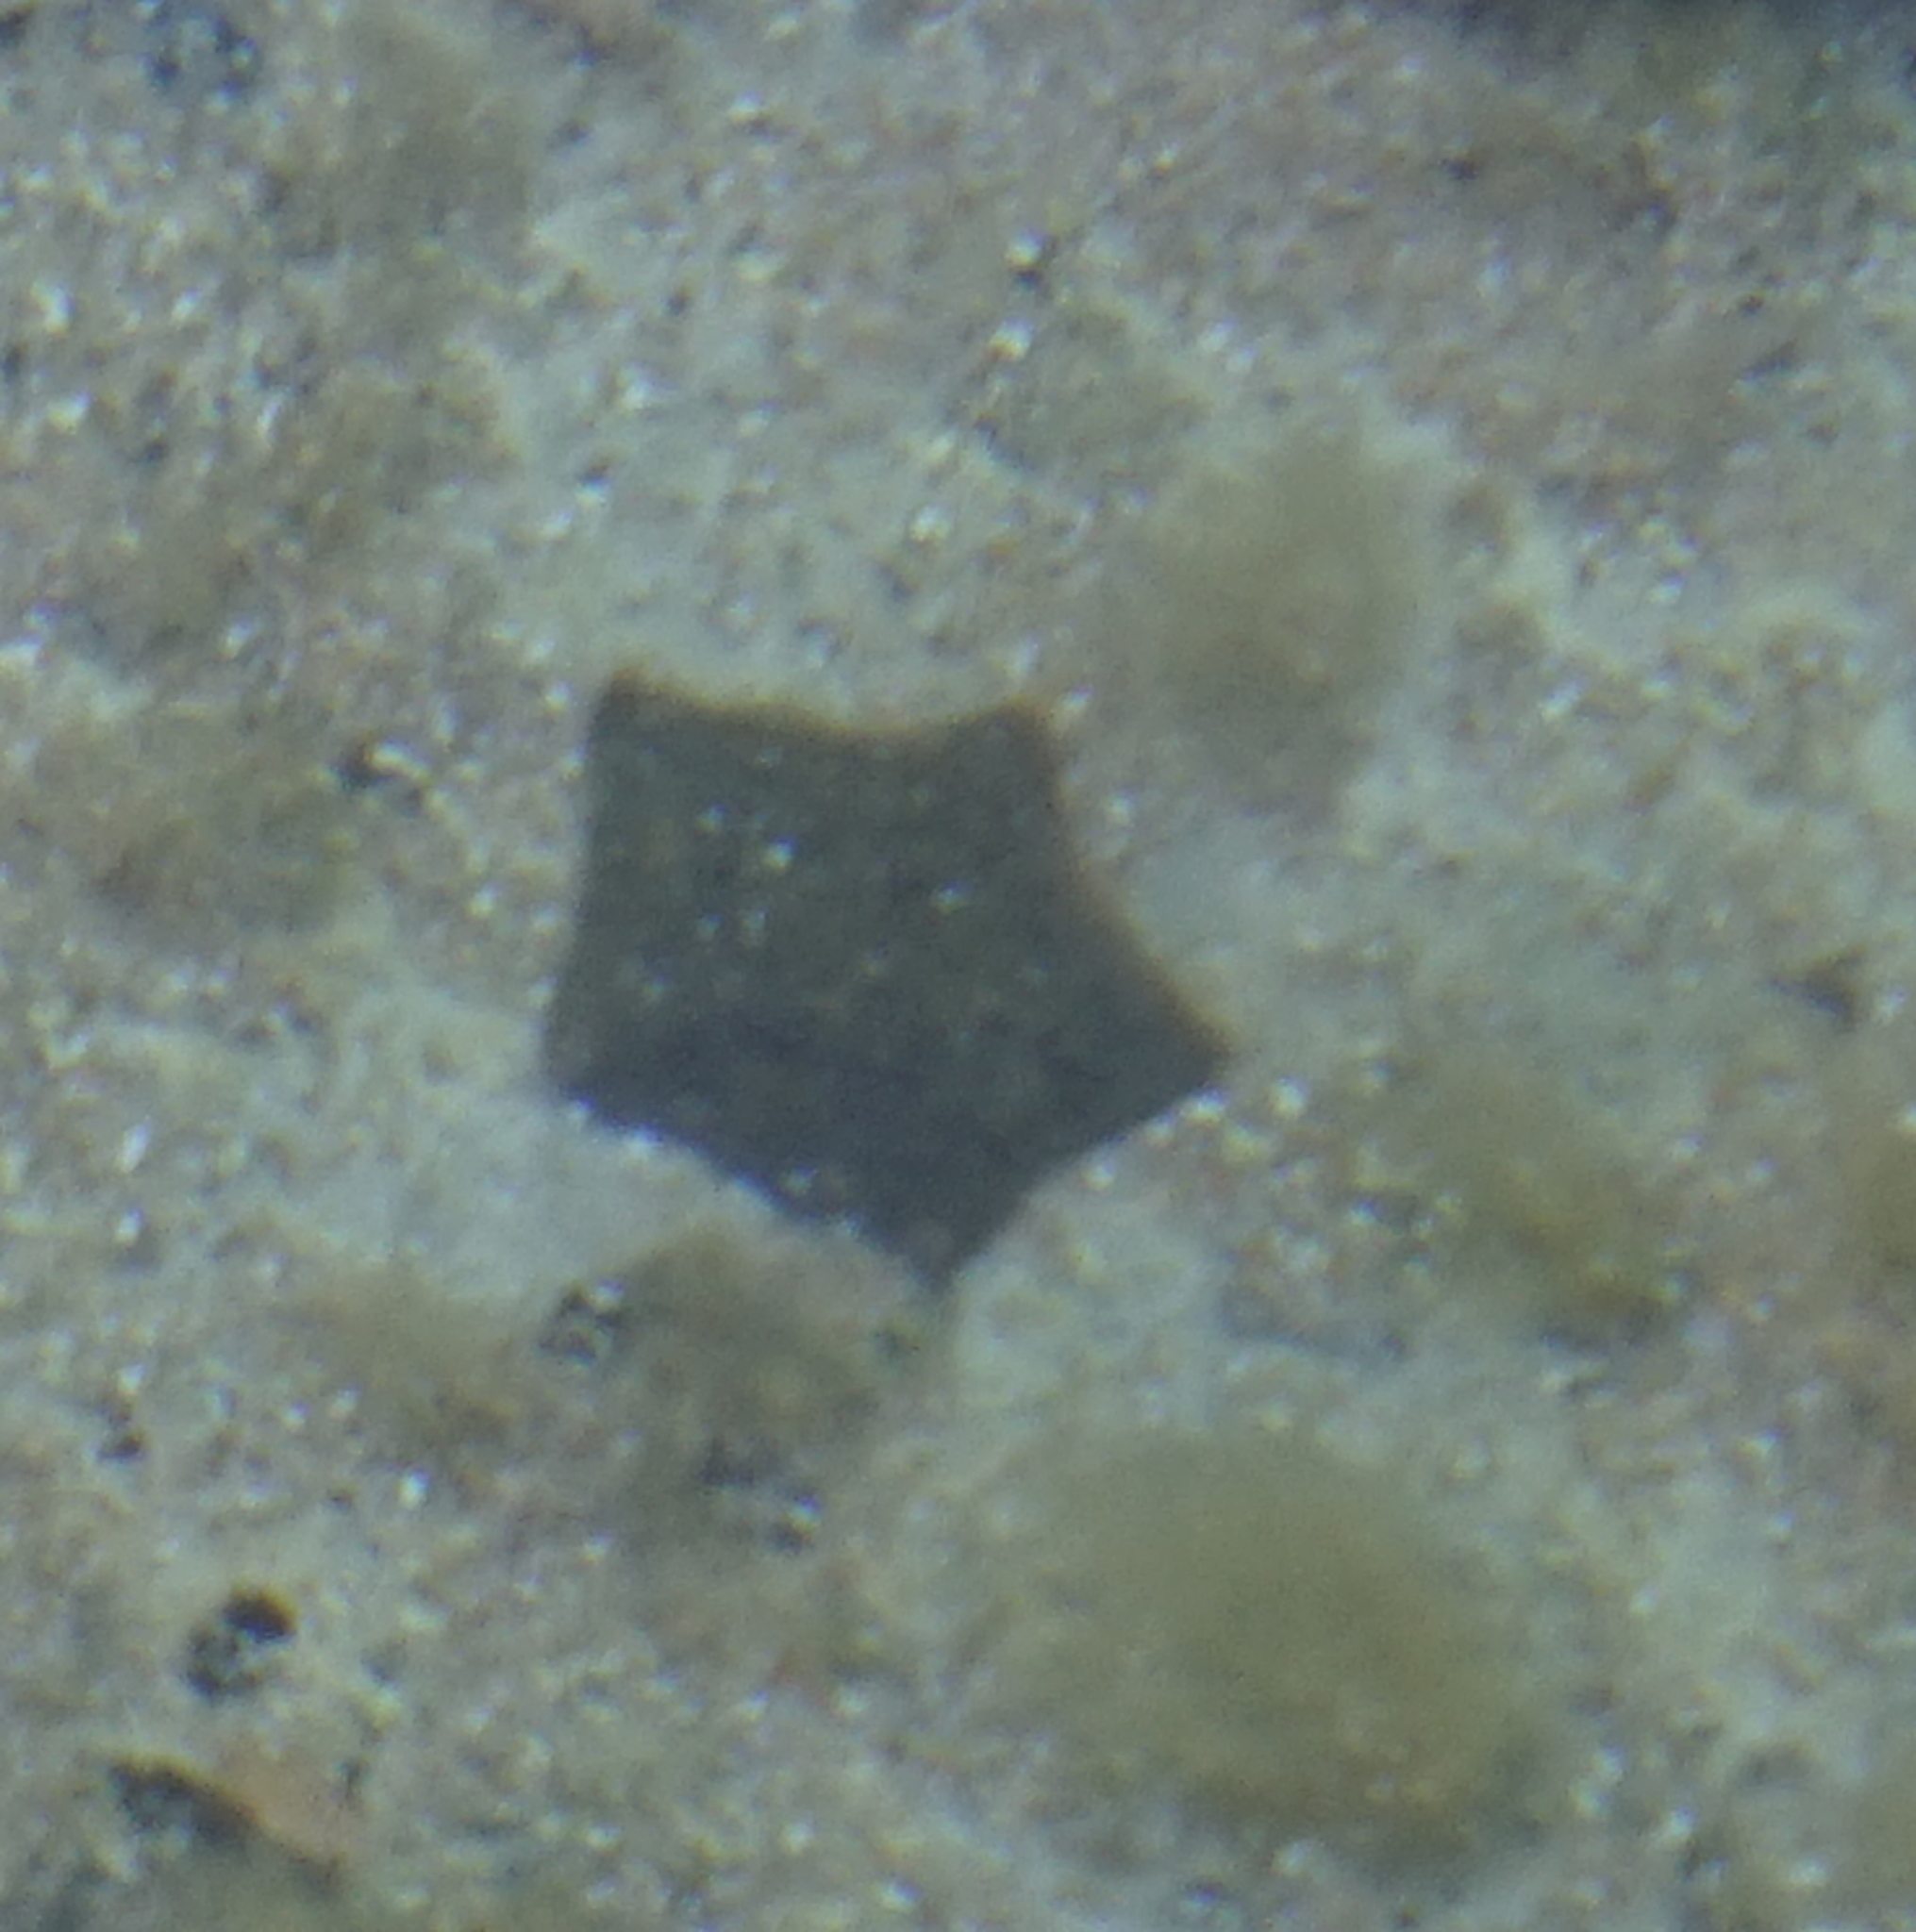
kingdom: Animalia
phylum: Echinodermata
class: Asteroidea
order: Valvatida
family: Asterinidae
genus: Parvulastra
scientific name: Parvulastra exigua
